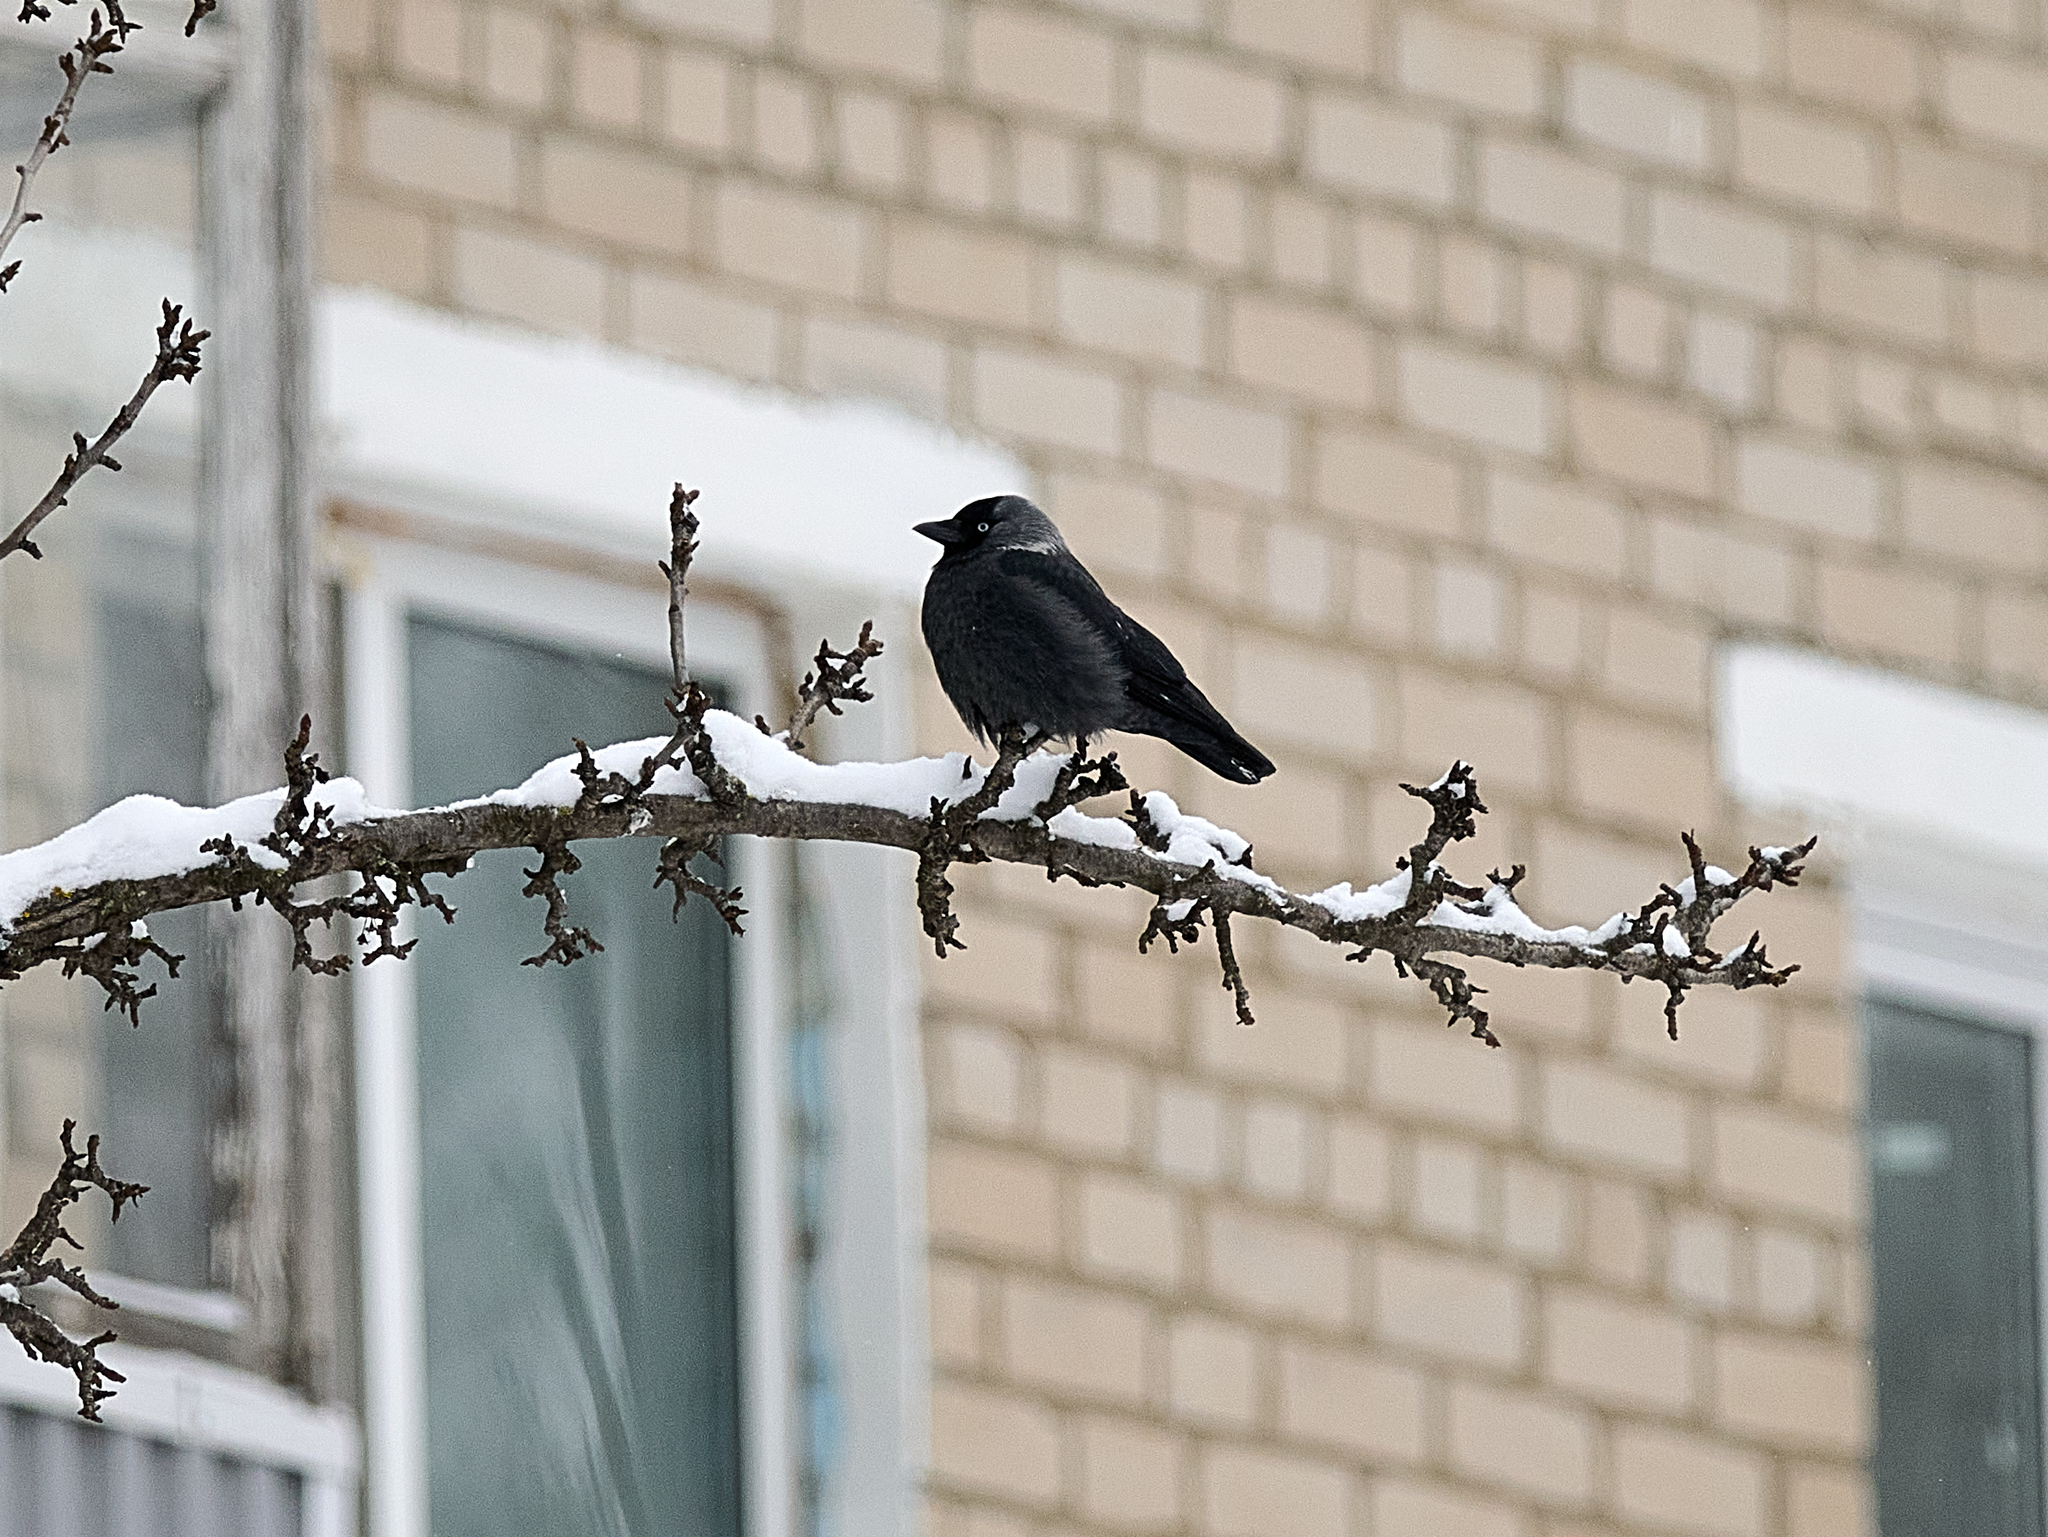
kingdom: Animalia
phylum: Chordata
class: Aves
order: Passeriformes
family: Corvidae
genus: Coloeus
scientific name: Coloeus monedula
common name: Western jackdaw
